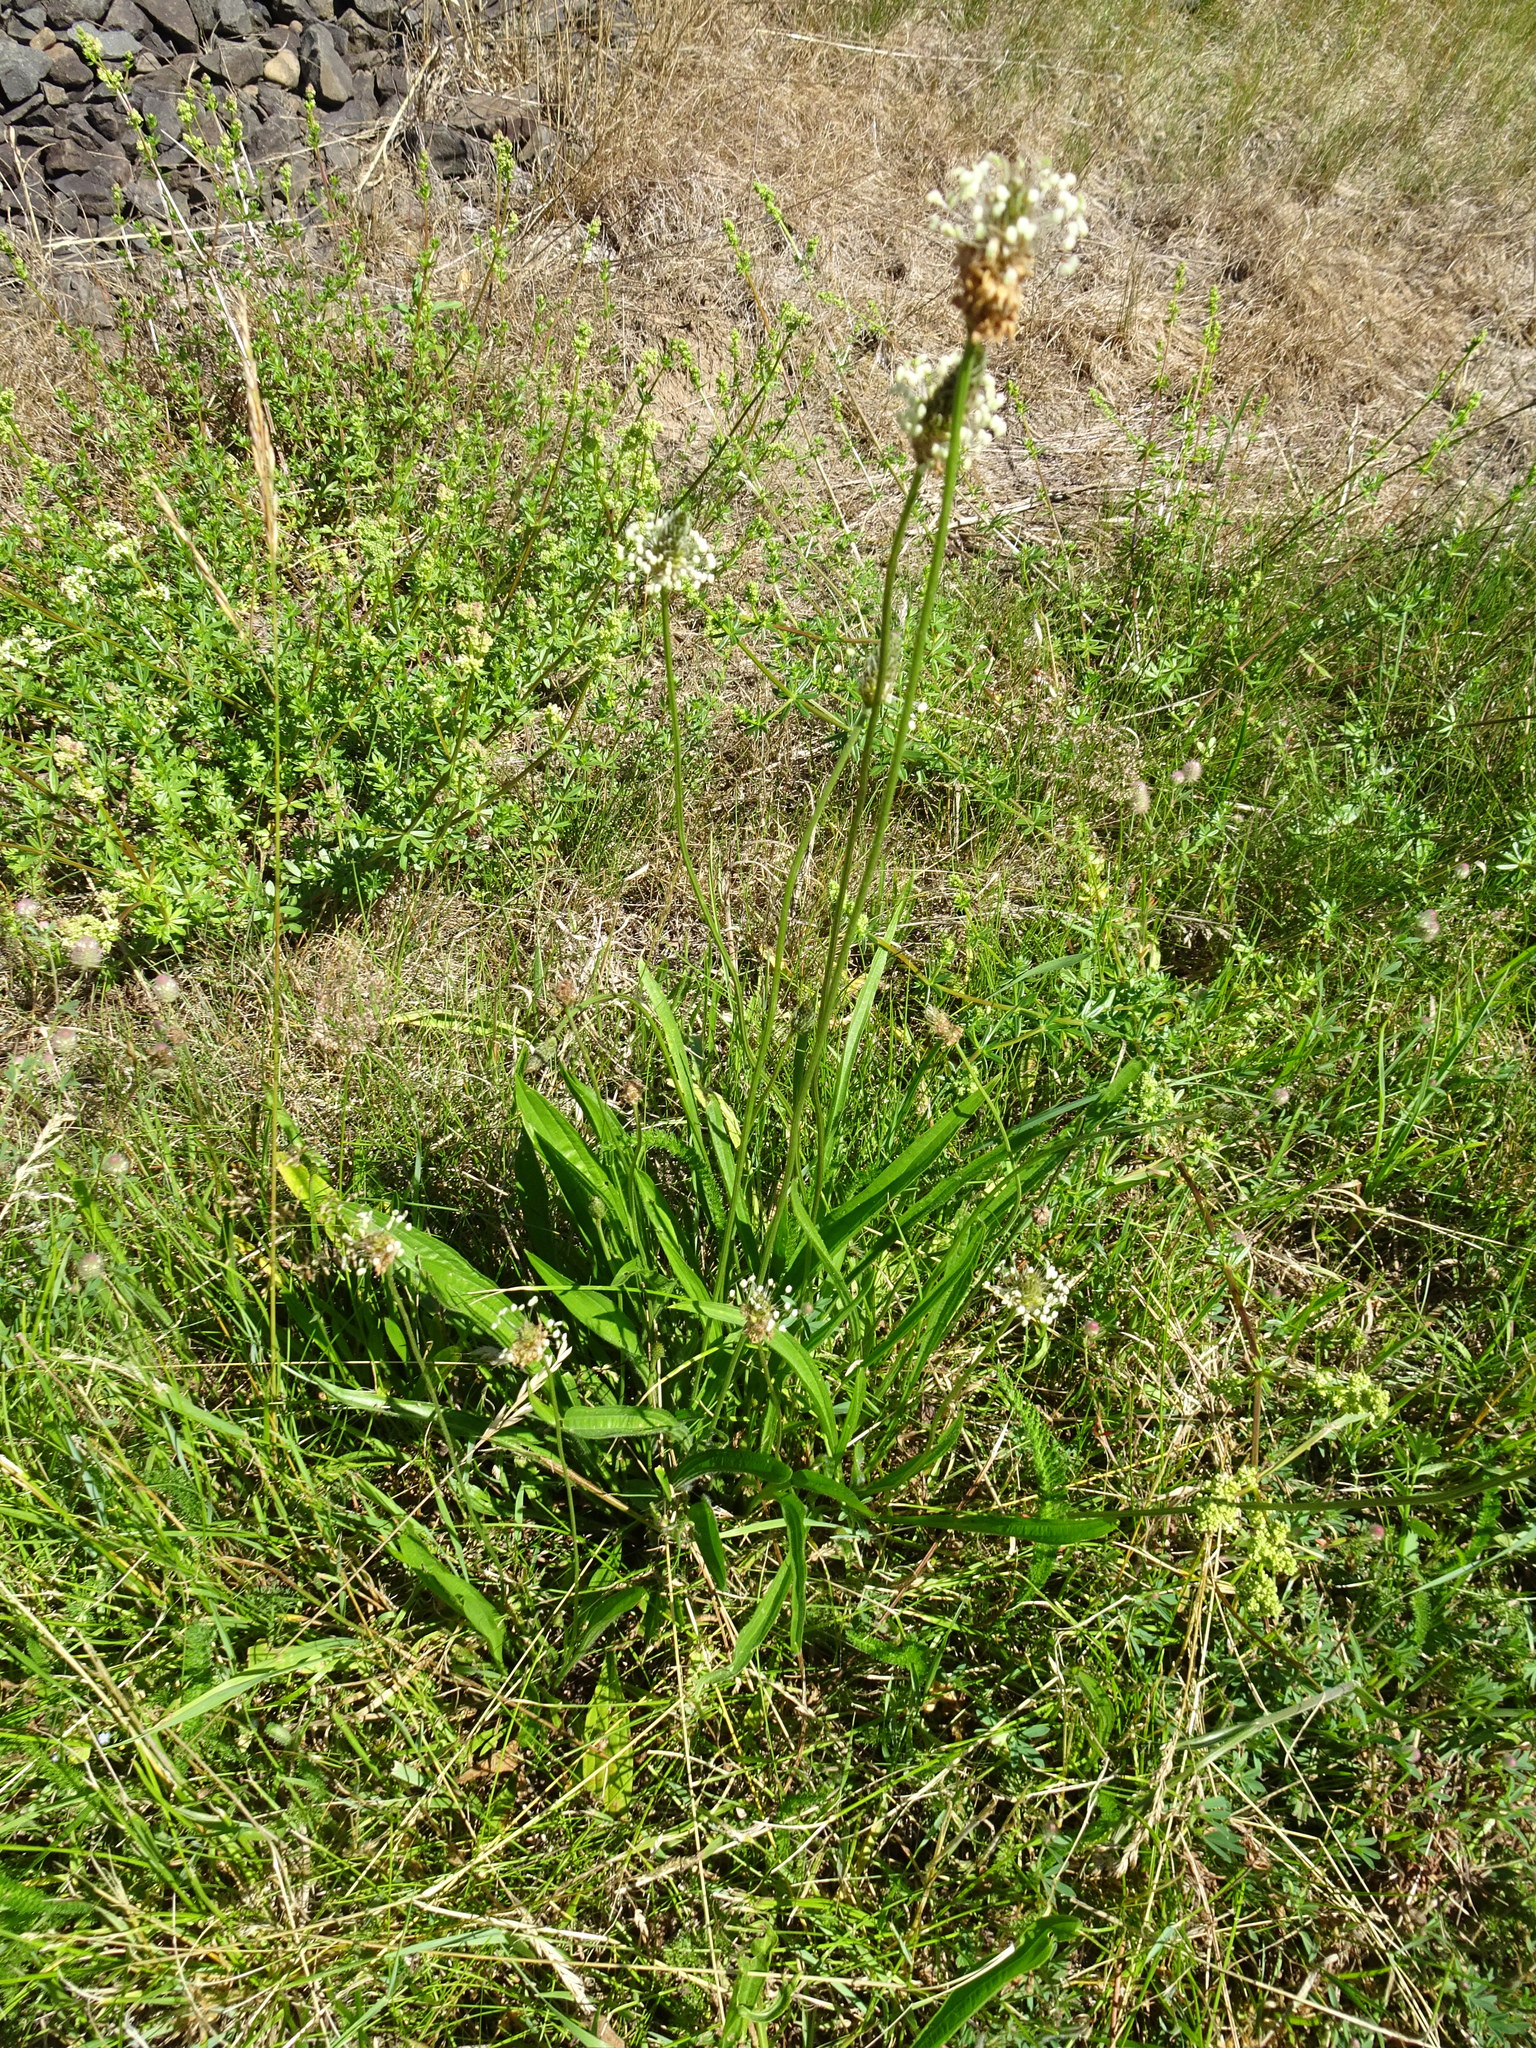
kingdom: Plantae
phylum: Tracheophyta
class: Magnoliopsida
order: Lamiales
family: Plantaginaceae
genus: Plantago
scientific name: Plantago lanceolata
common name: Ribwort plantain
